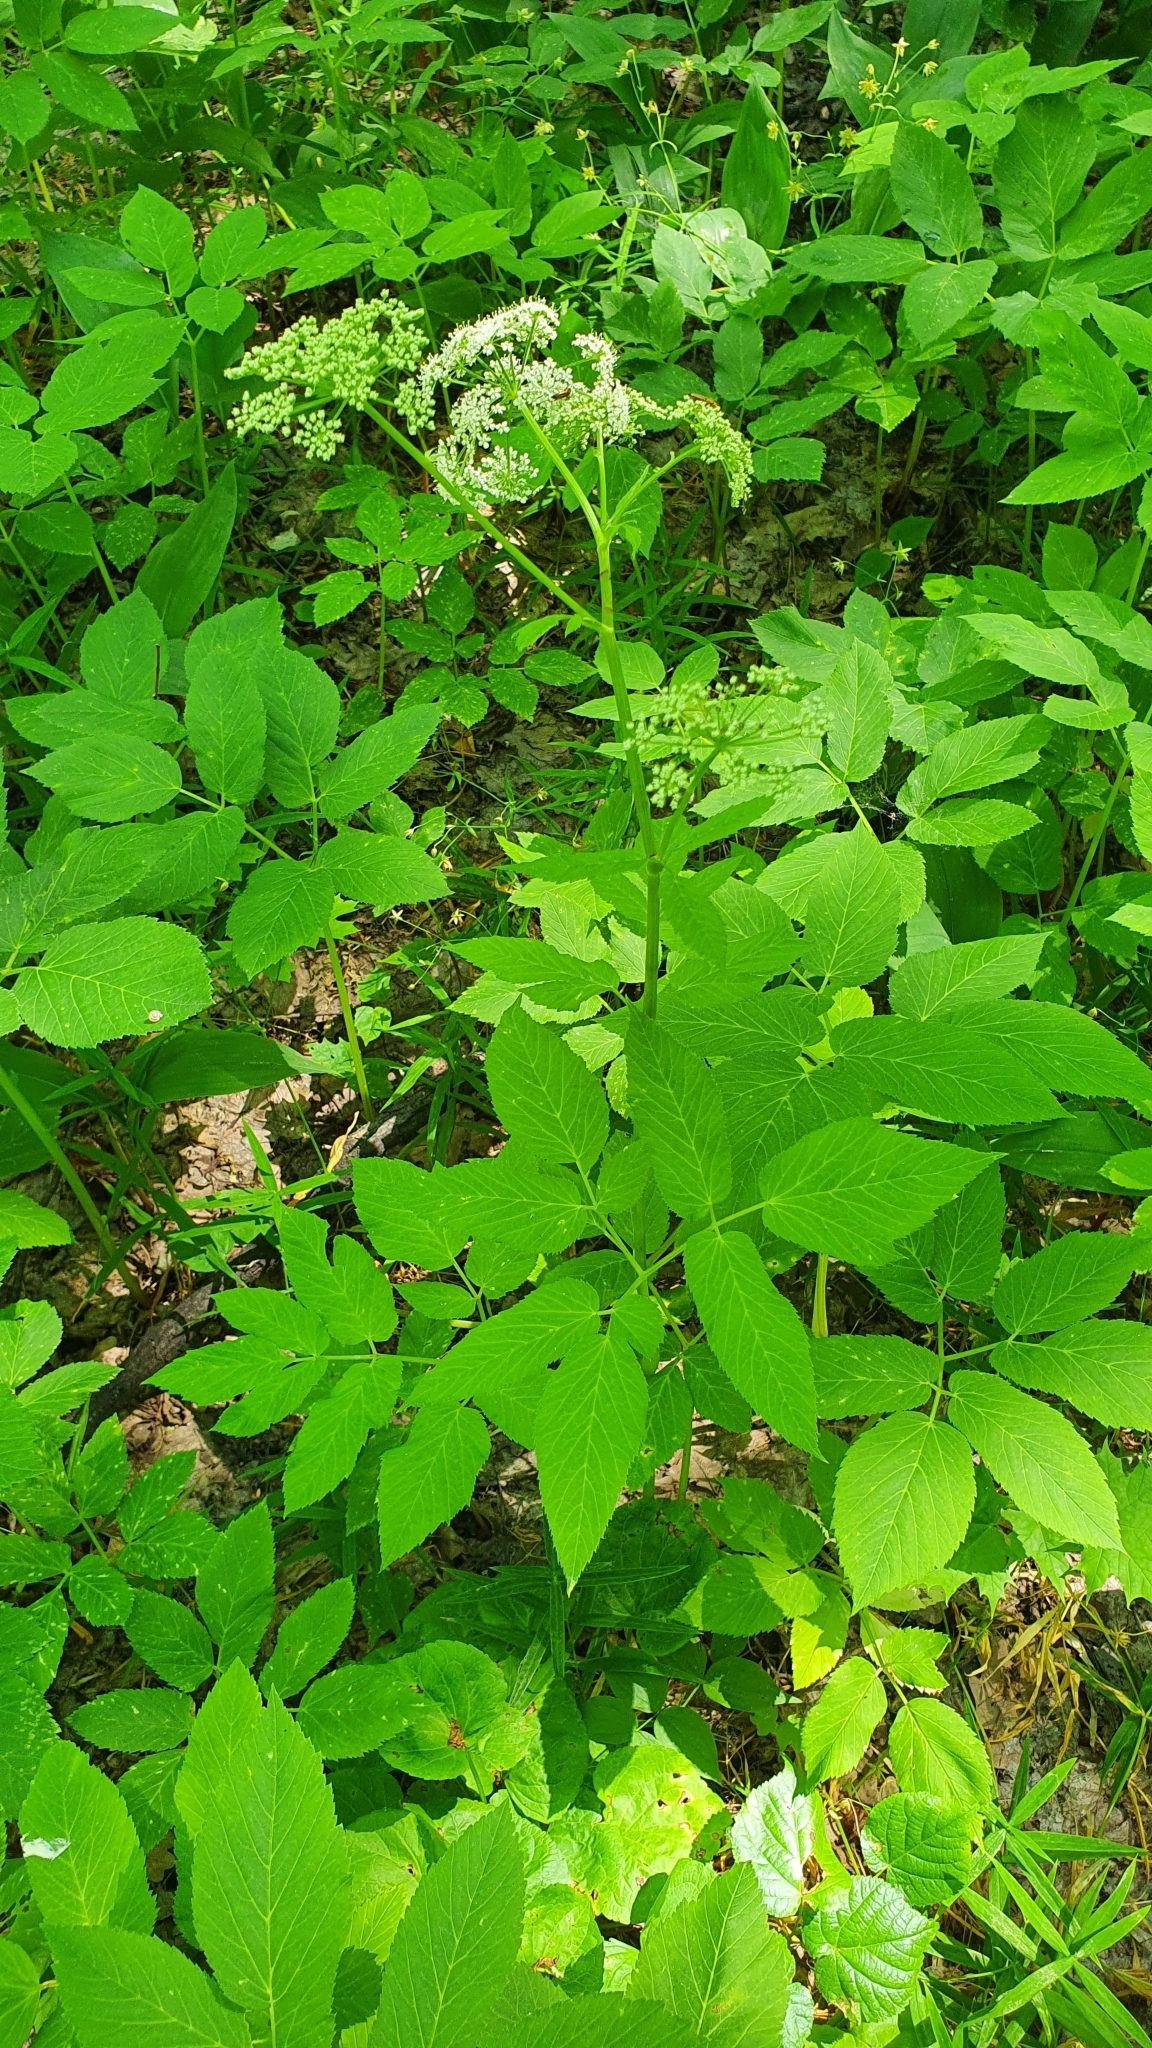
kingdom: Plantae
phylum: Tracheophyta
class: Magnoliopsida
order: Apiales
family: Apiaceae
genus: Aegopodium
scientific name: Aegopodium podagraria
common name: Ground-elder
